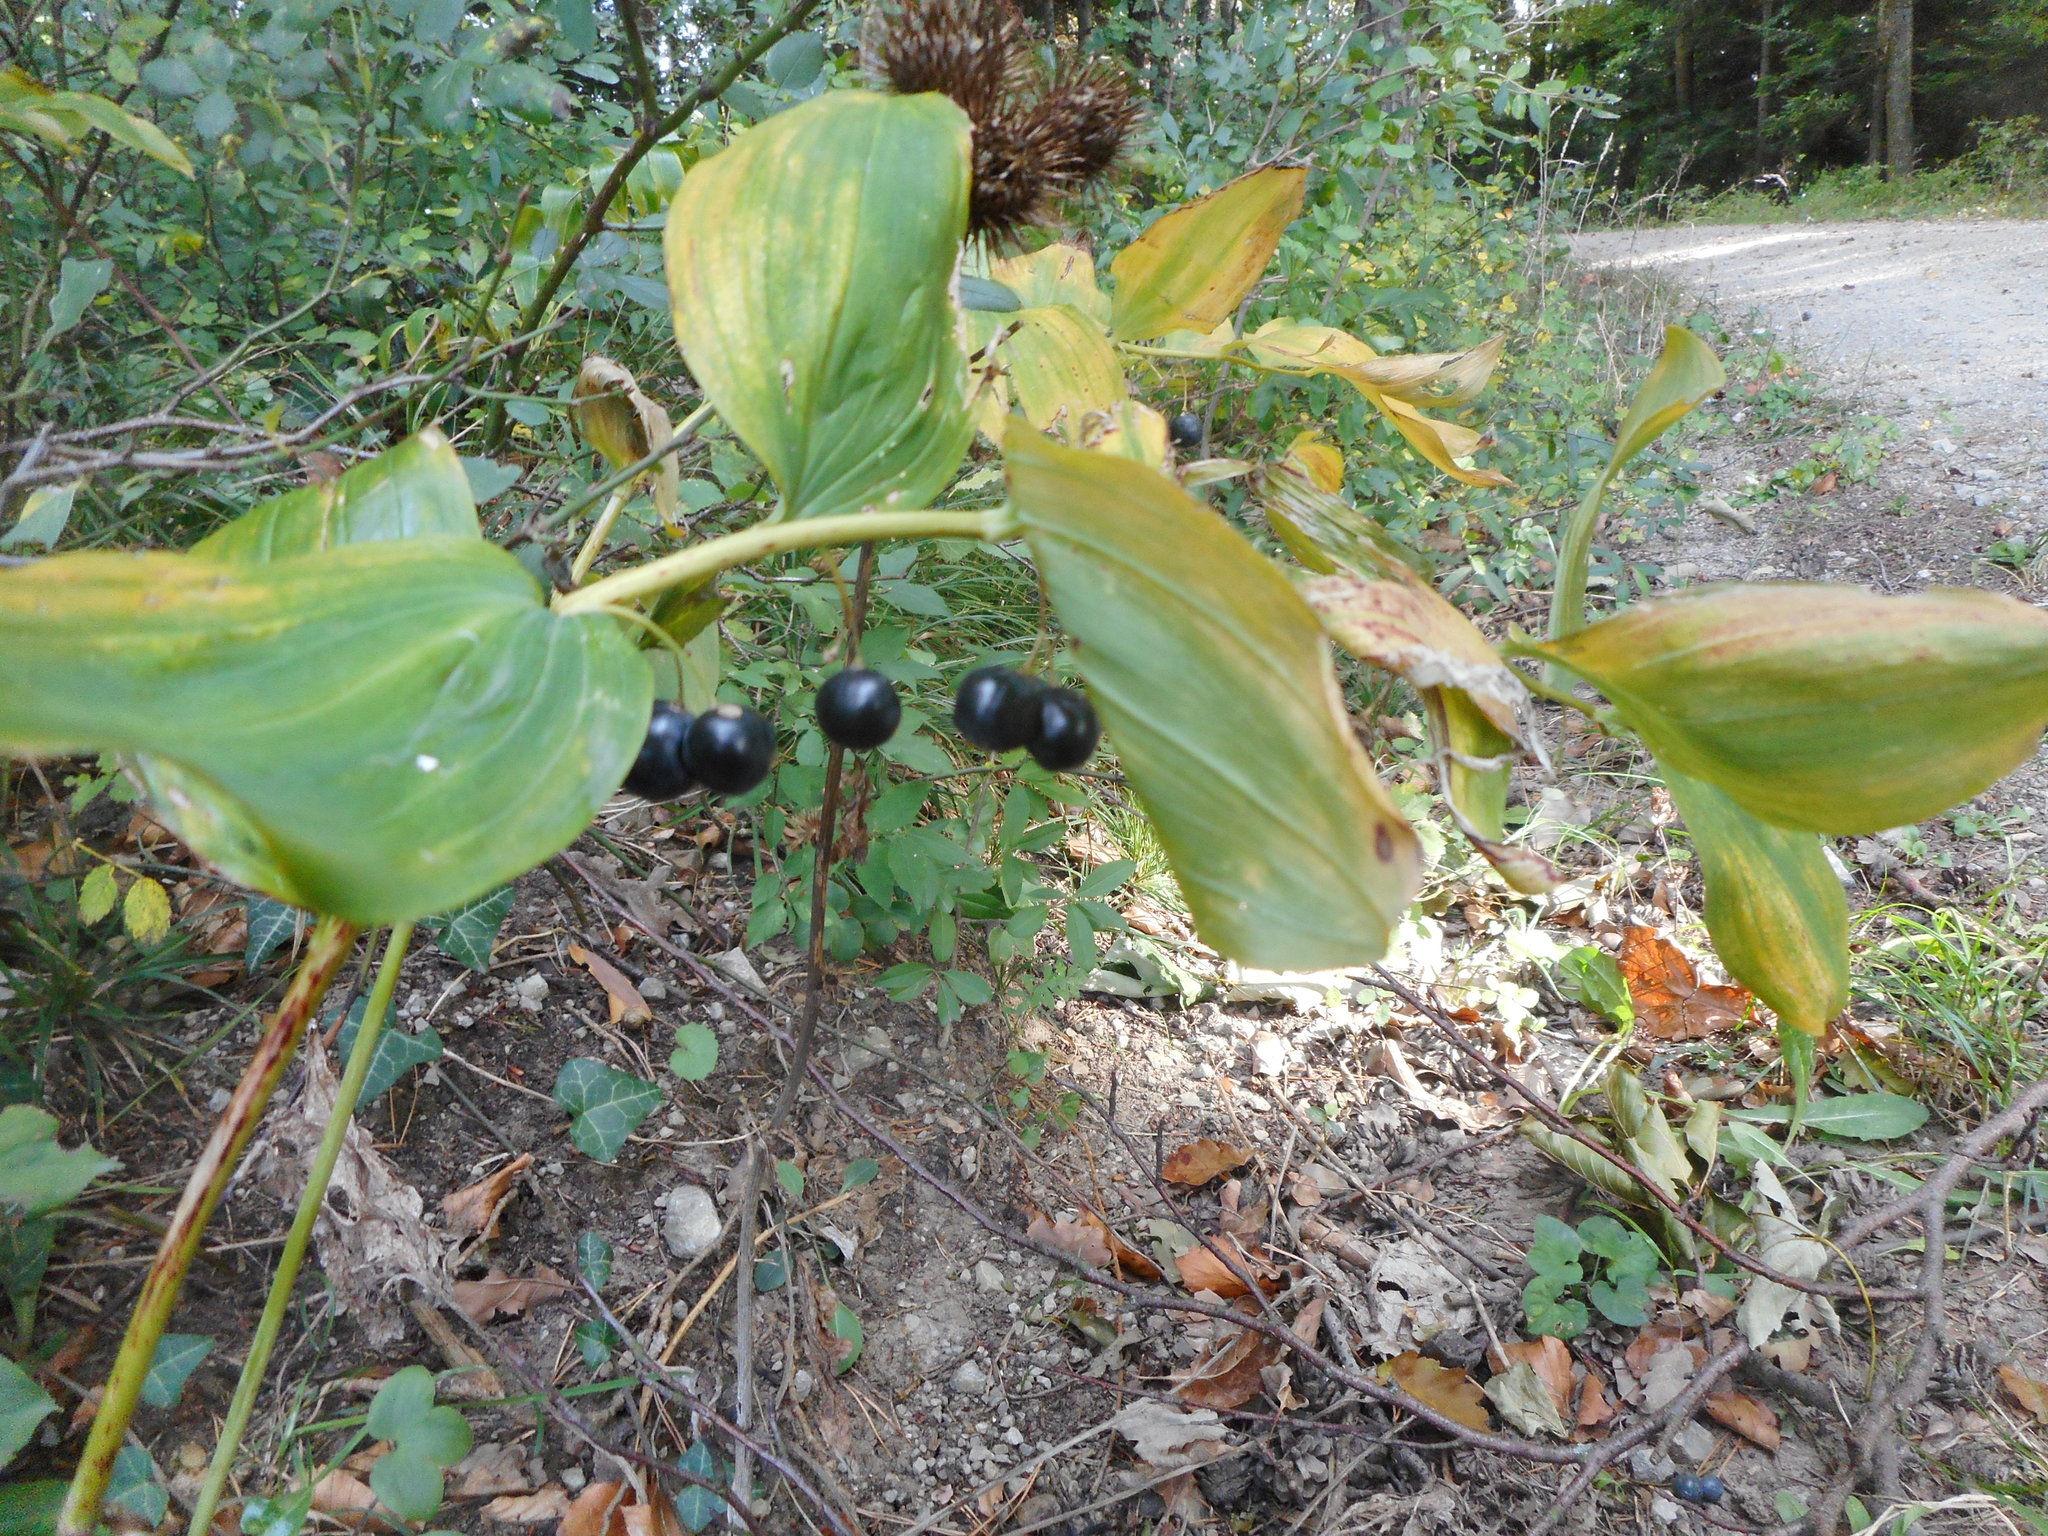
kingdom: Plantae
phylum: Tracheophyta
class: Liliopsida
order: Asparagales
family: Asparagaceae
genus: Polygonatum
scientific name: Polygonatum multiflorum
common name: Solomon's-seal
